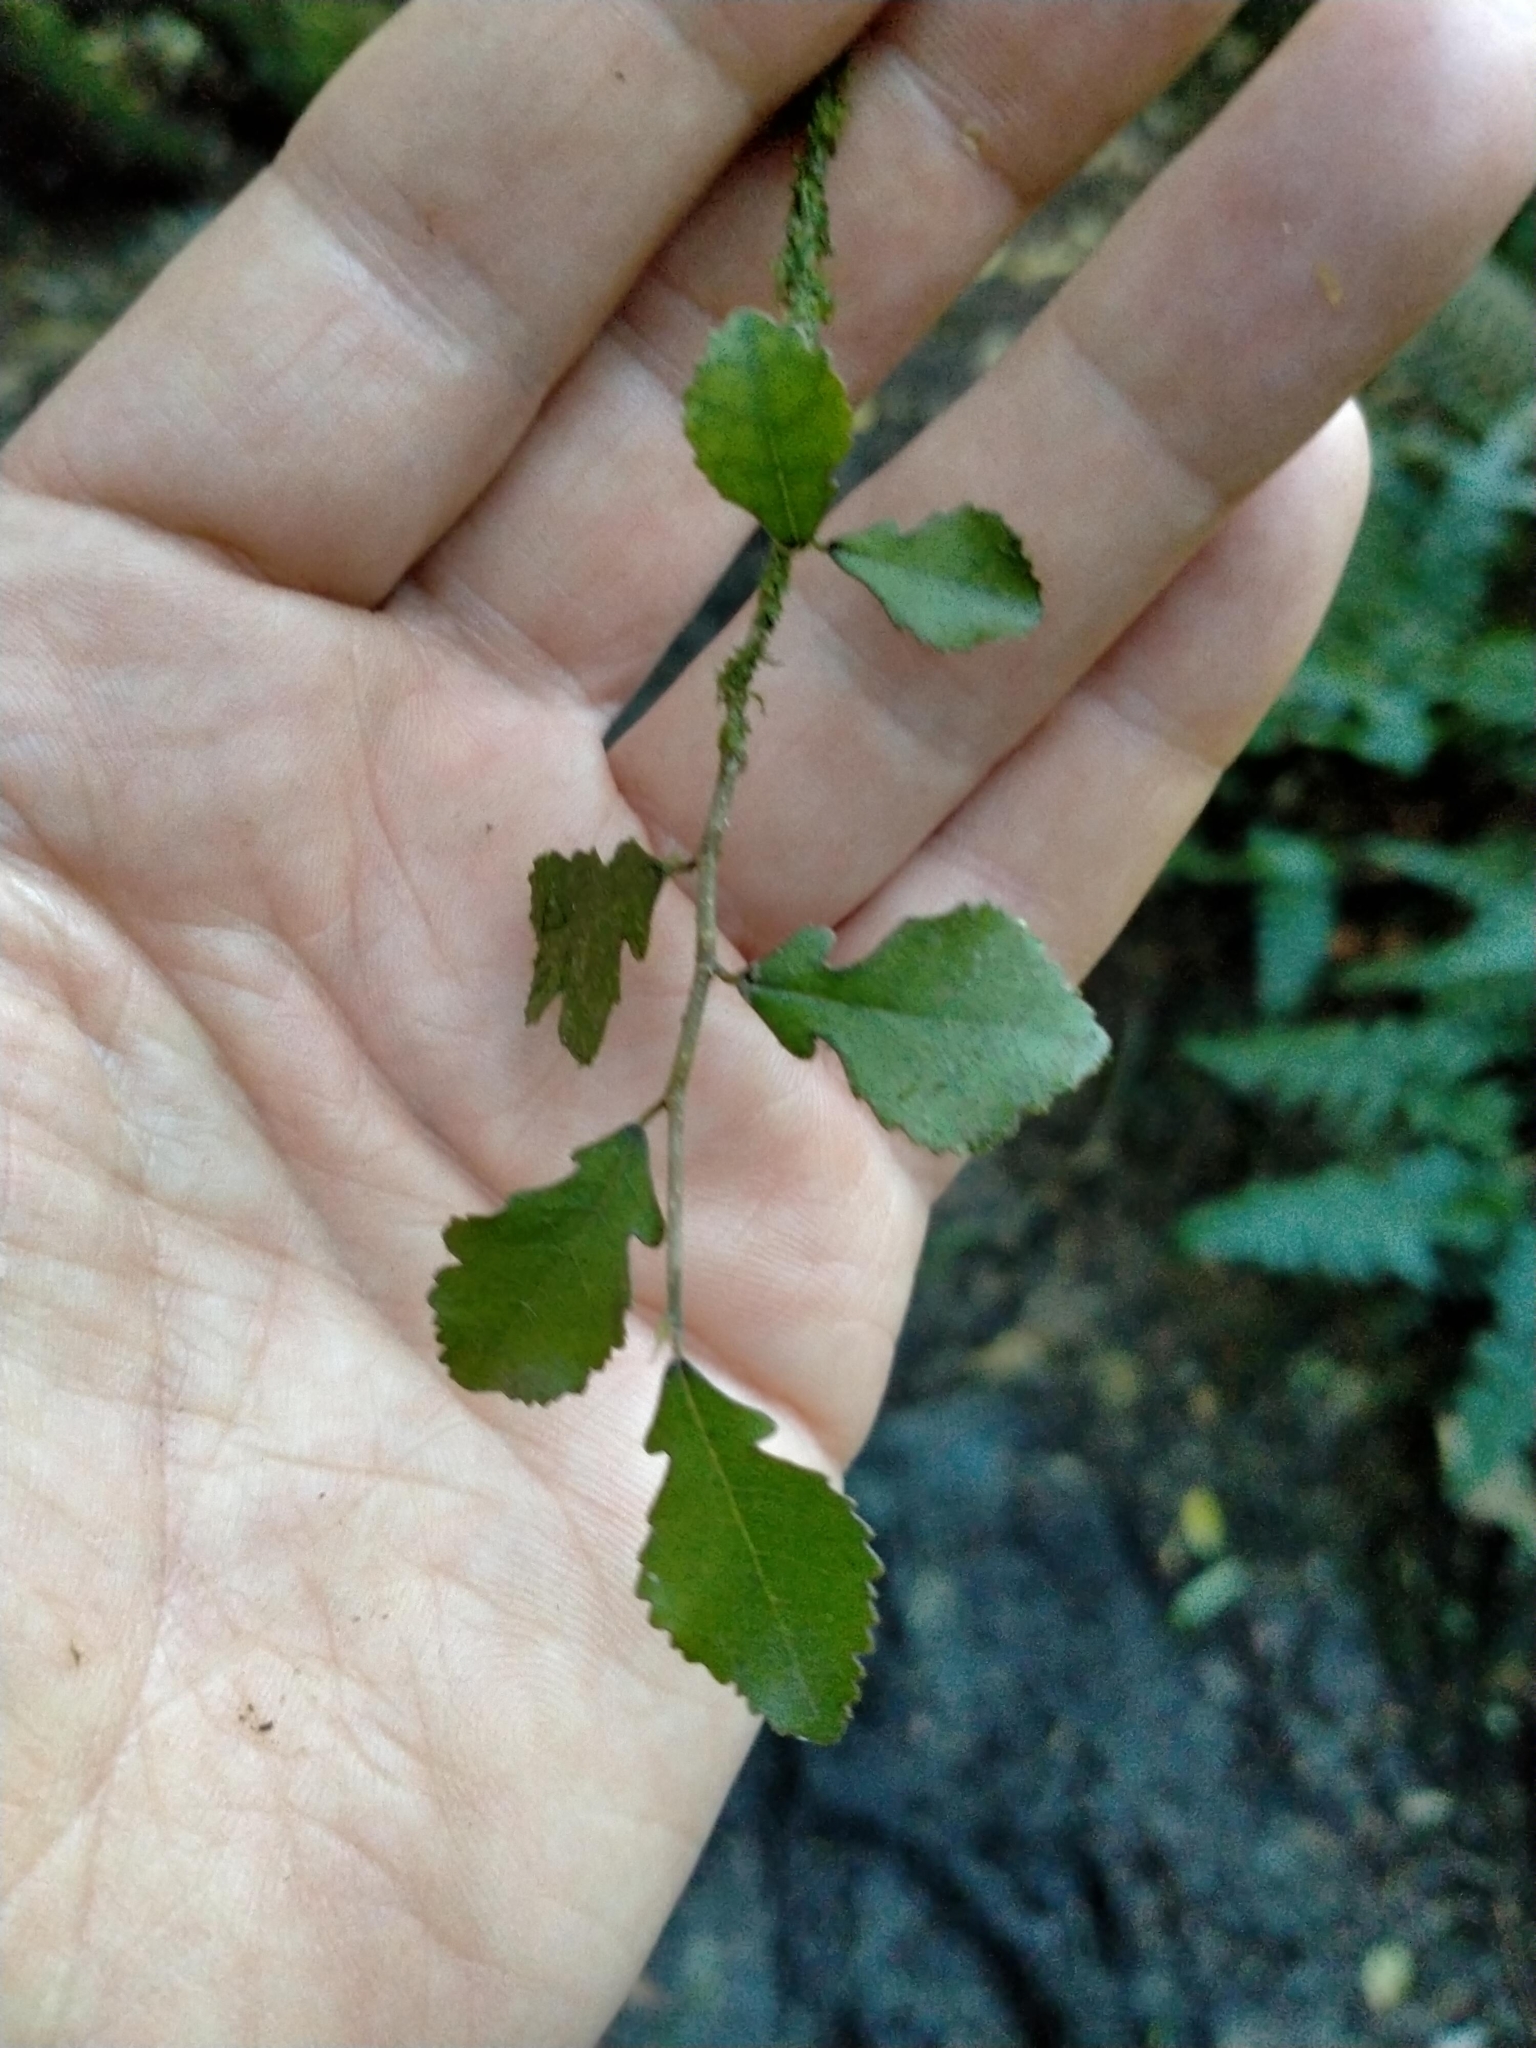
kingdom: Plantae
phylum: Tracheophyta
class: Magnoliopsida
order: Rosales
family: Moraceae
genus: Paratrophis
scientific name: Paratrophis microphylla
